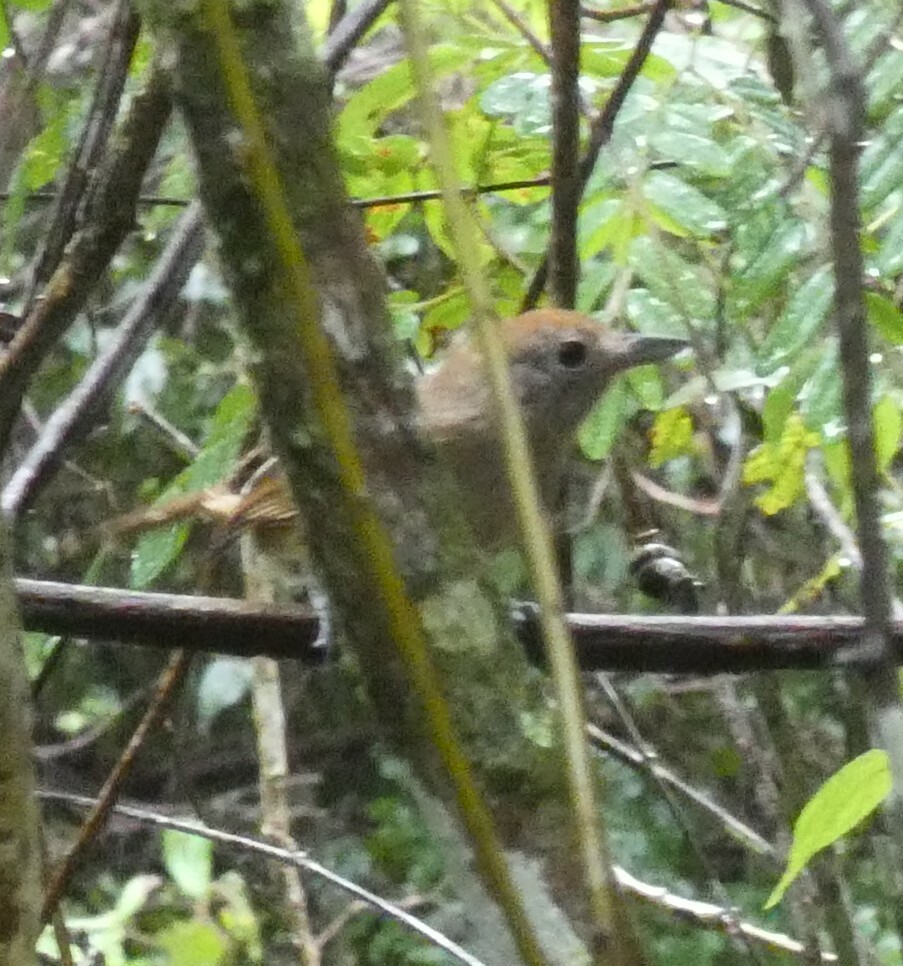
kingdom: Animalia
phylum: Chordata
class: Aves
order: Passeriformes
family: Thamnophilidae
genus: Dysithamnus
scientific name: Dysithamnus mentalis
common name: Plain antvireo
